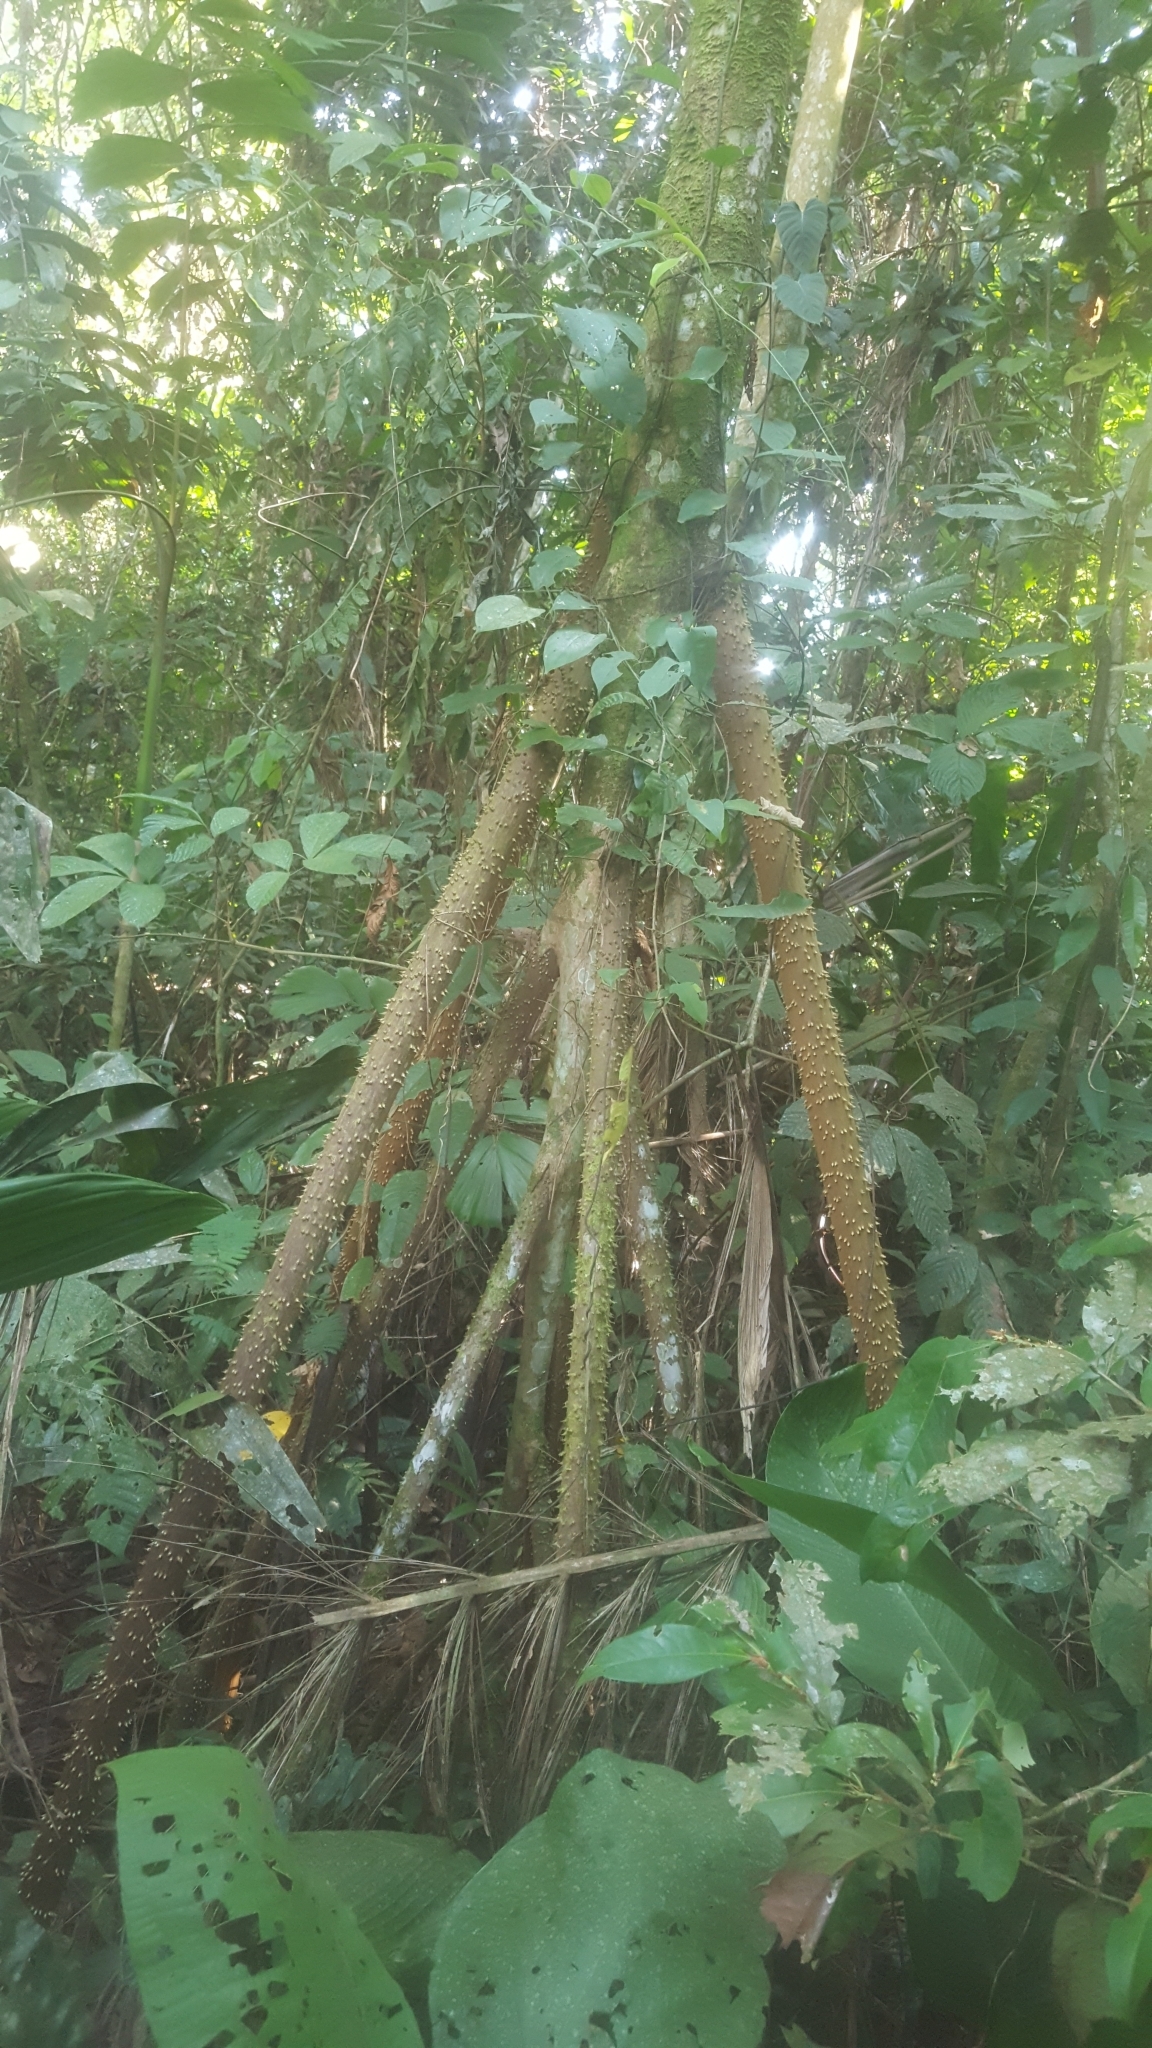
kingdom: Plantae
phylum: Tracheophyta
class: Liliopsida
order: Arecales
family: Arecaceae
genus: Socratea
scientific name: Socratea exorrhiza
